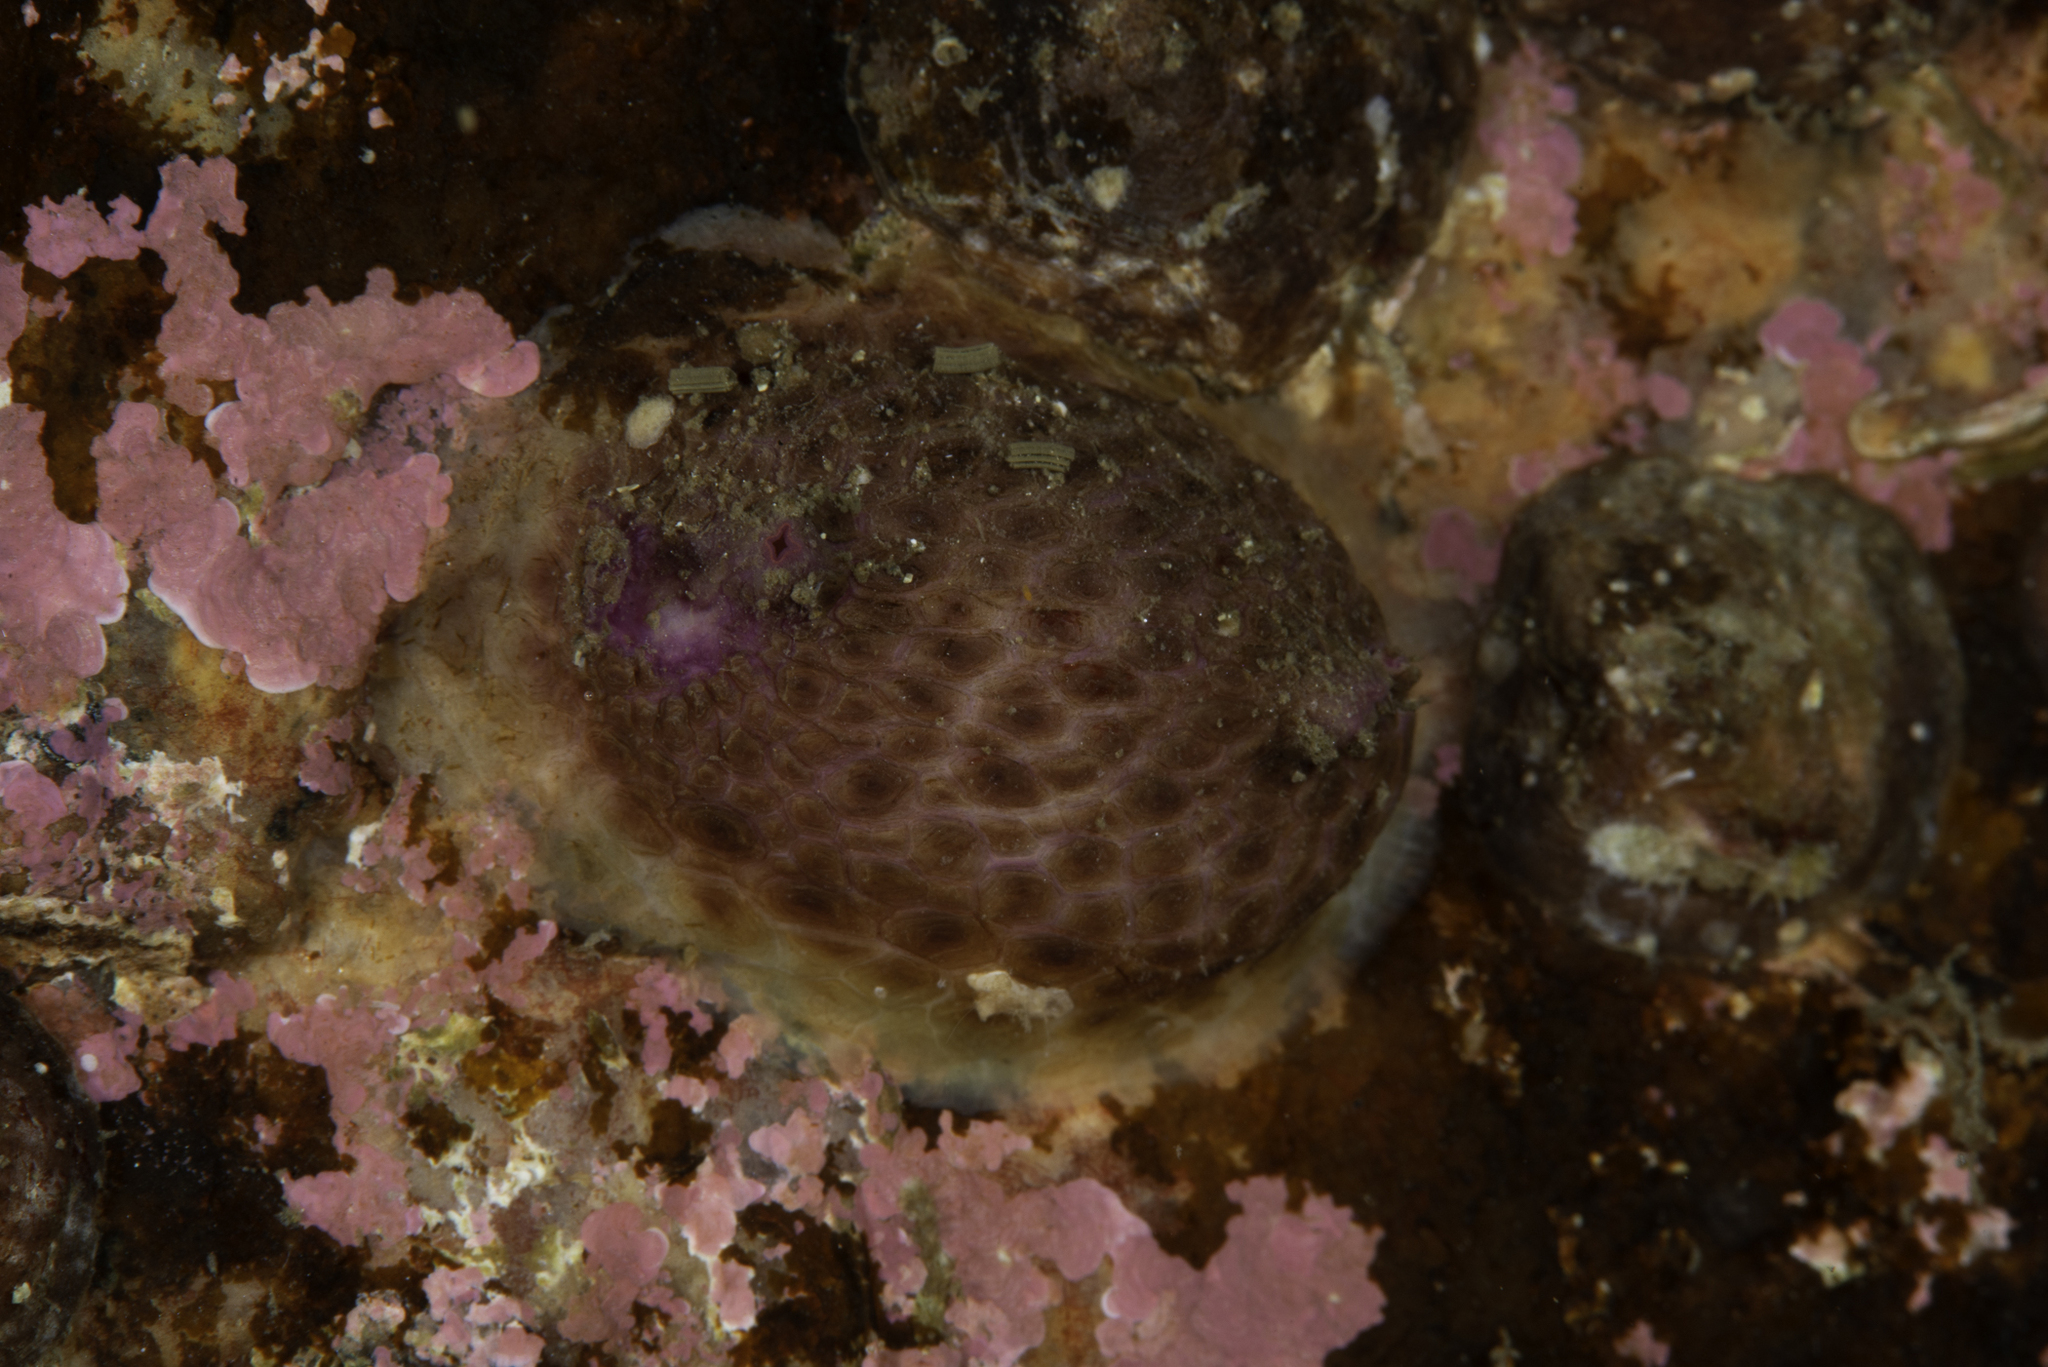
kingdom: Animalia
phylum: Chordata
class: Ascidiacea
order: Stolidobranchia
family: Pyuridae
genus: Pyura
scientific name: Pyura tessellata
